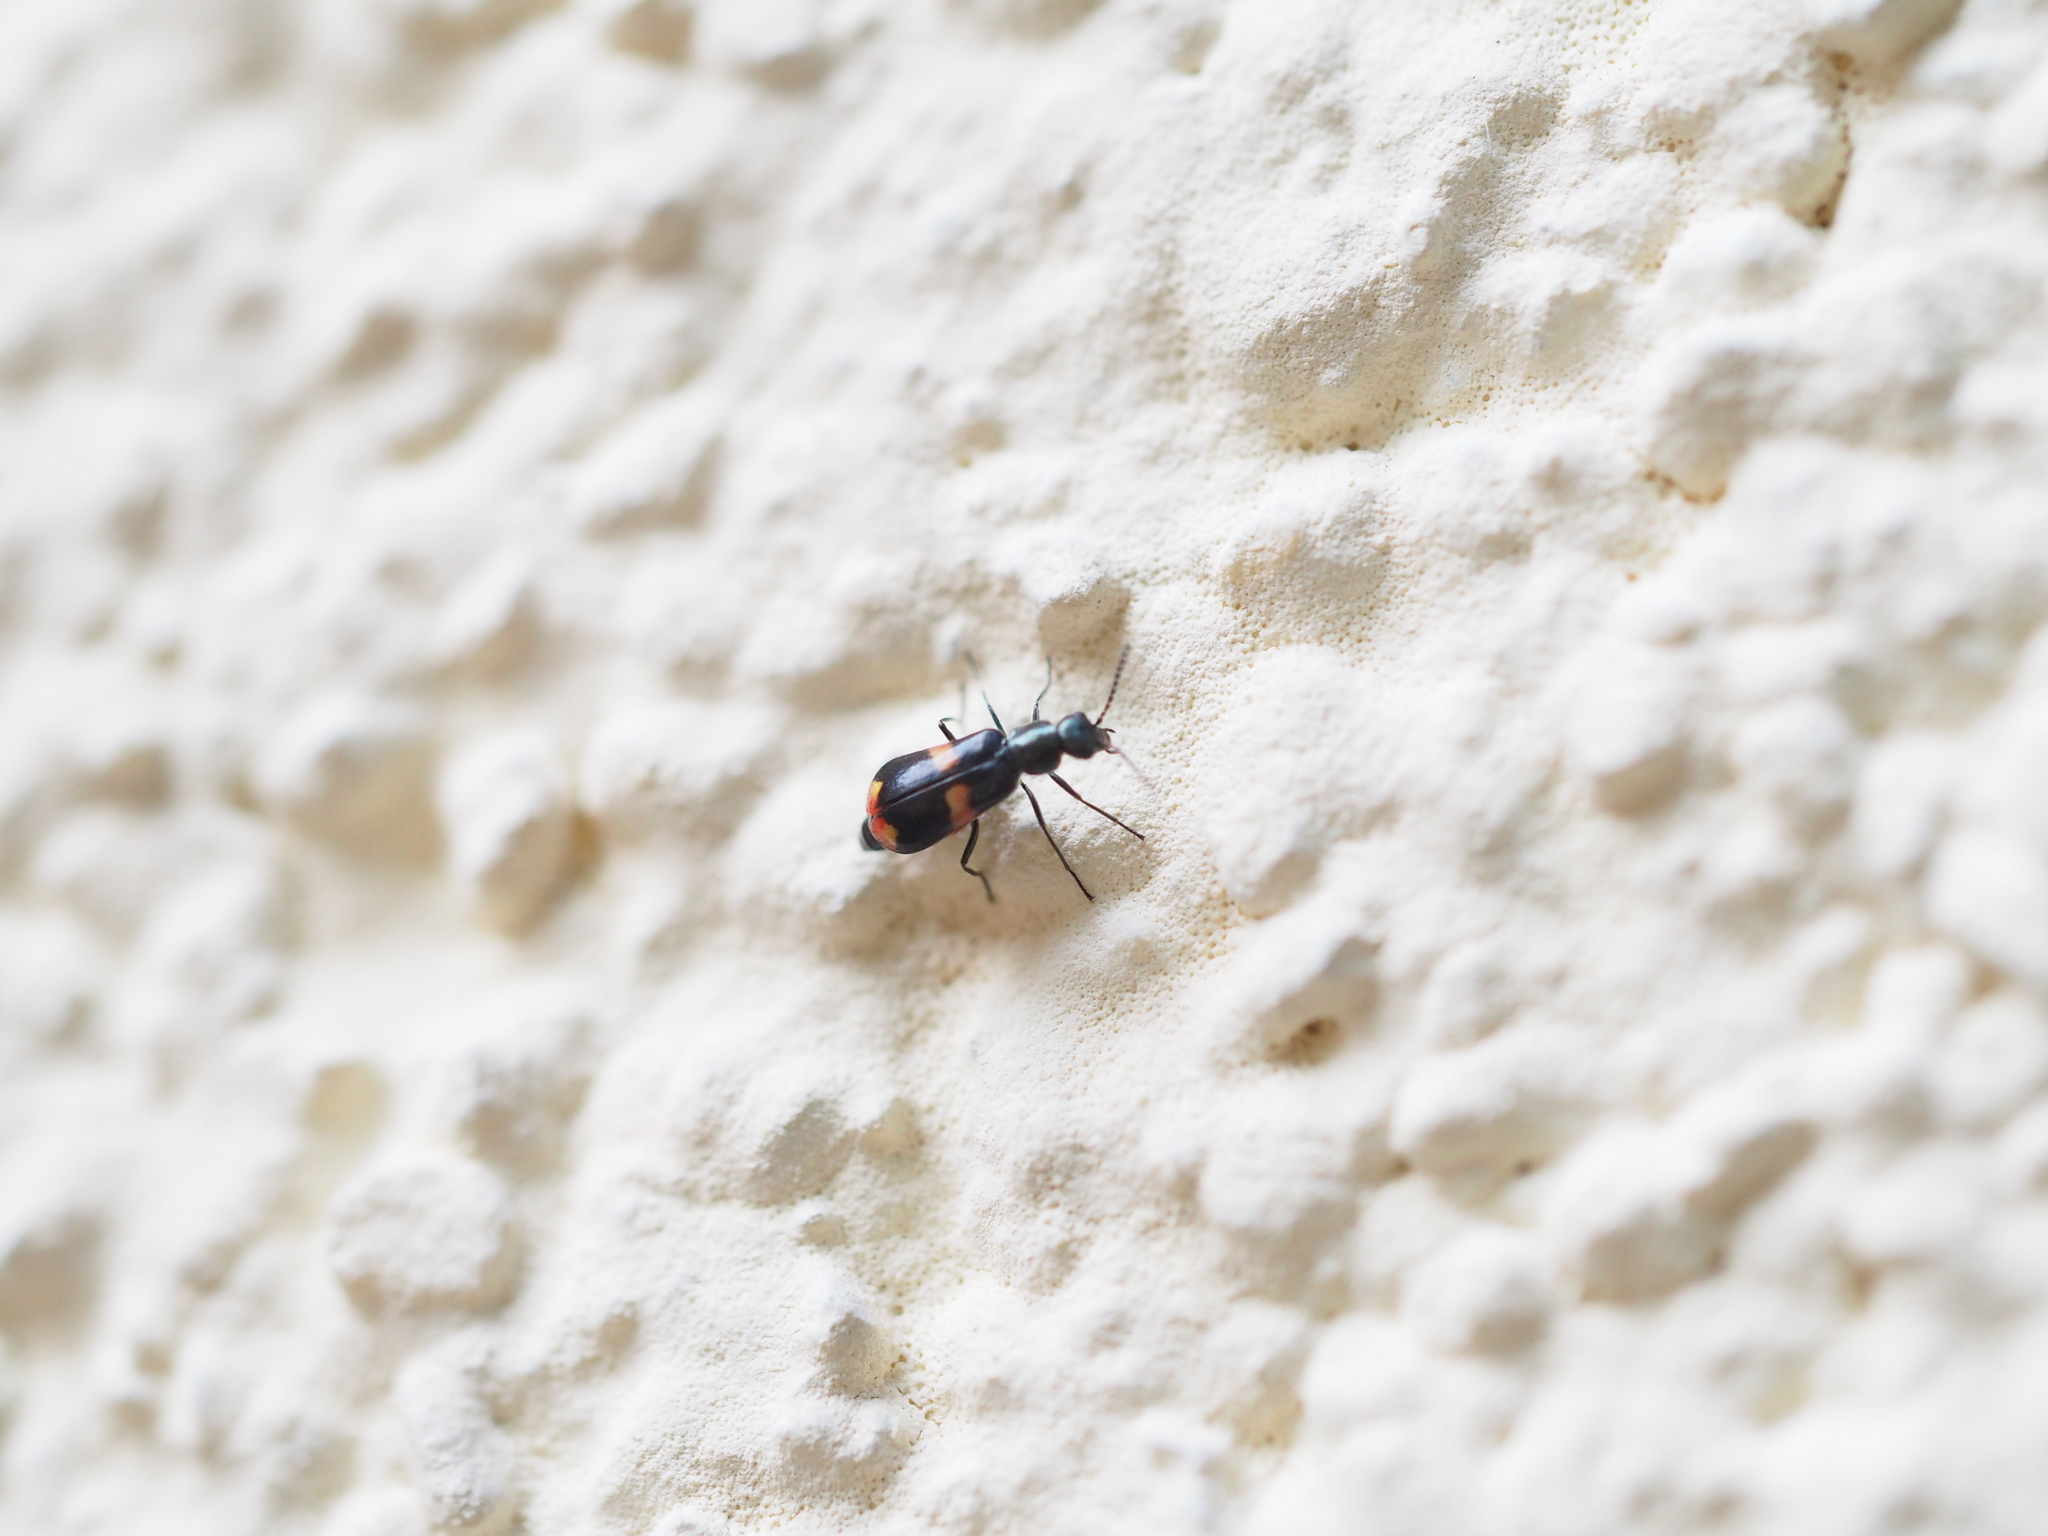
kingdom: Animalia
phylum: Arthropoda
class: Insecta
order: Coleoptera
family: Melyridae
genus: Anthocomus
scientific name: Anthocomus fasciatus
